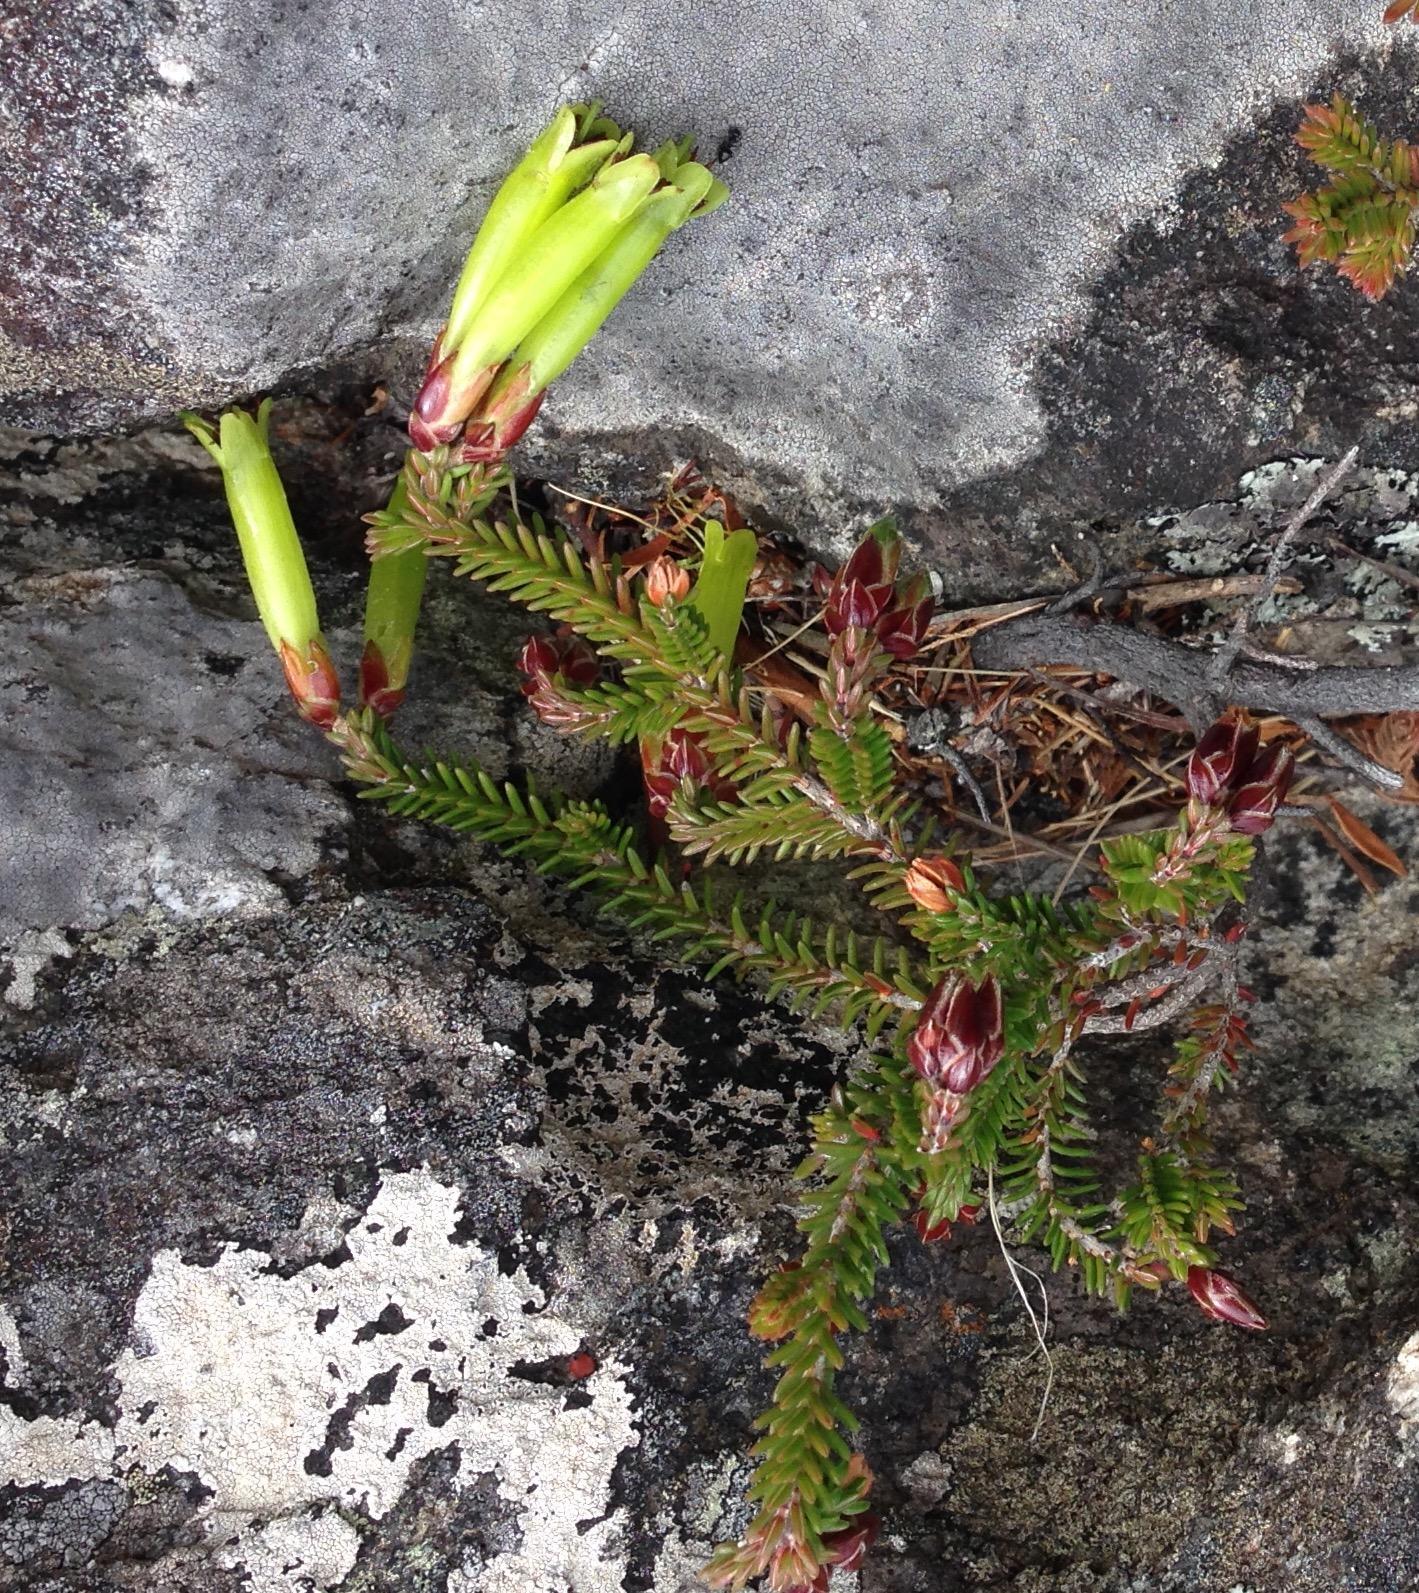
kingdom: Plantae
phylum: Tracheophyta
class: Magnoliopsida
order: Ericales
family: Ericaceae
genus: Erica
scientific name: Erica viridiflora
